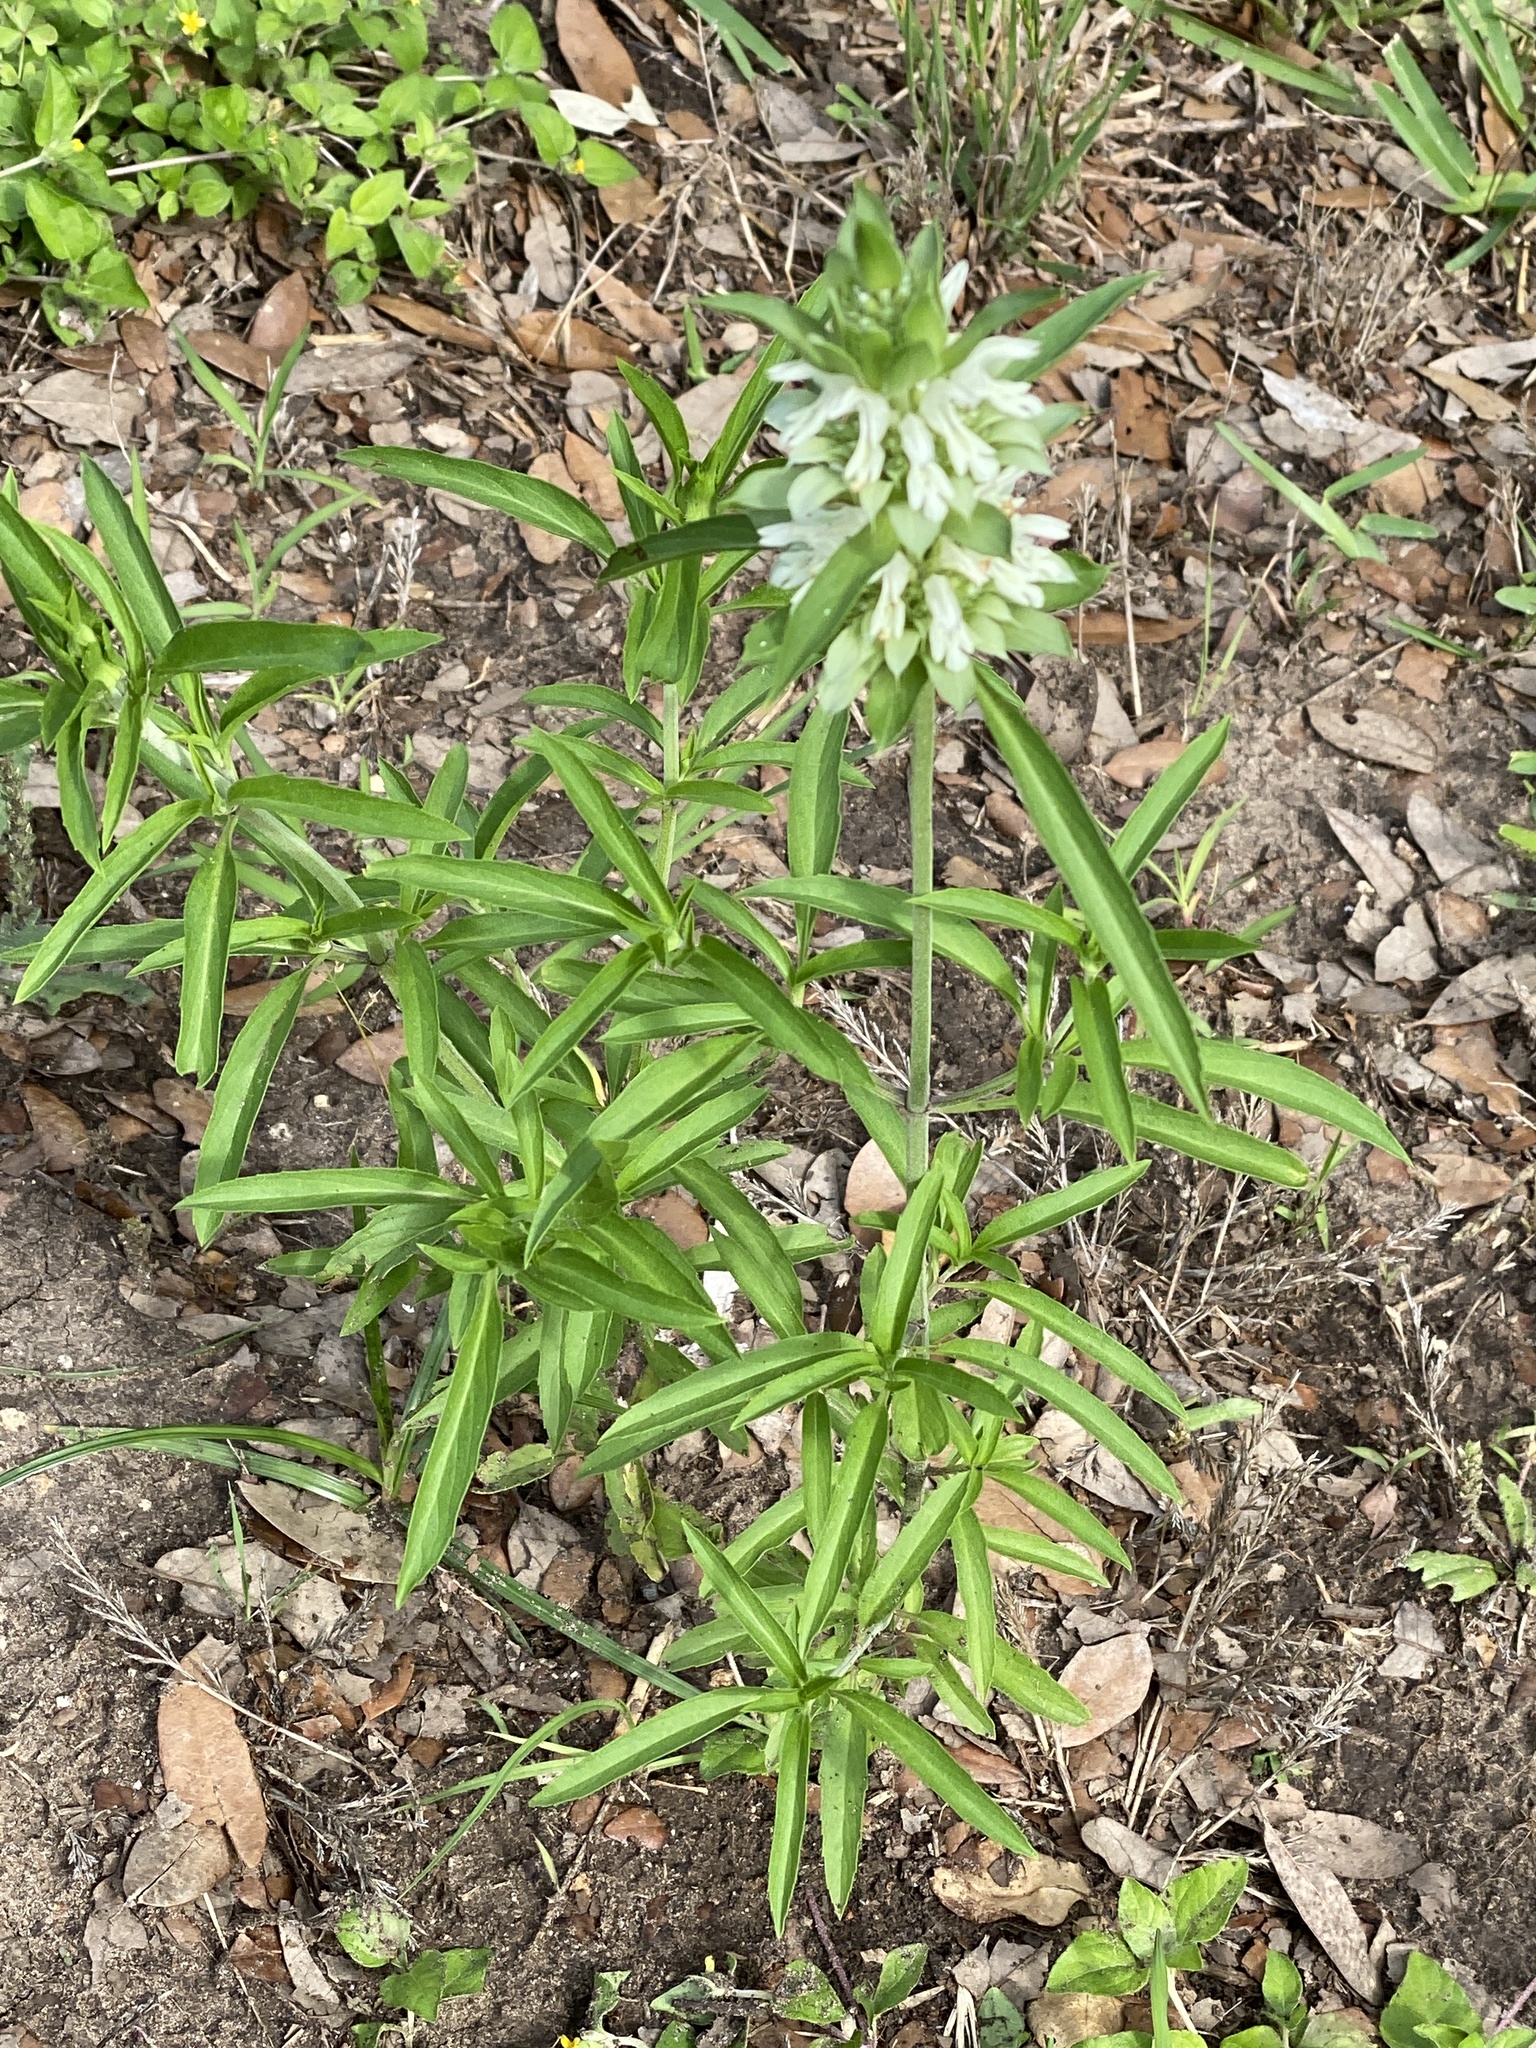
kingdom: Plantae
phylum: Tracheophyta
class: Magnoliopsida
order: Lamiales
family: Lamiaceae
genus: Monarda
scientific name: Monarda citriodora
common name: Lemon beebalm
